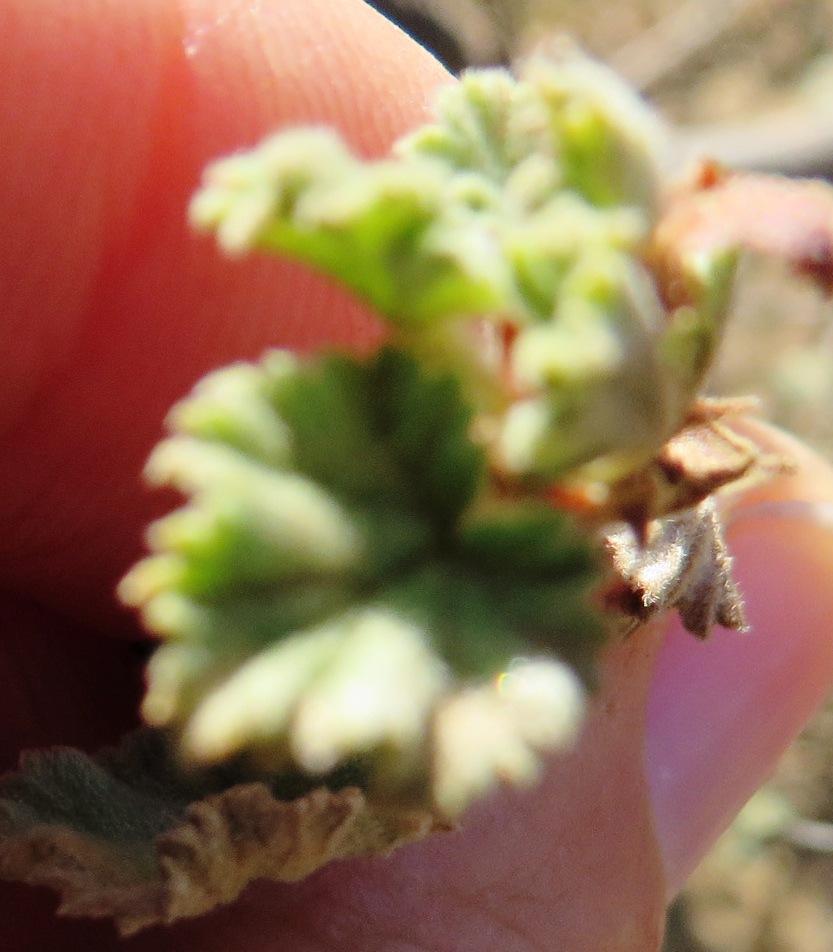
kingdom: Plantae
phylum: Tracheophyta
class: Magnoliopsida
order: Geraniales
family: Geraniaceae
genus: Pelargonium
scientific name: Pelargonium magenteum
